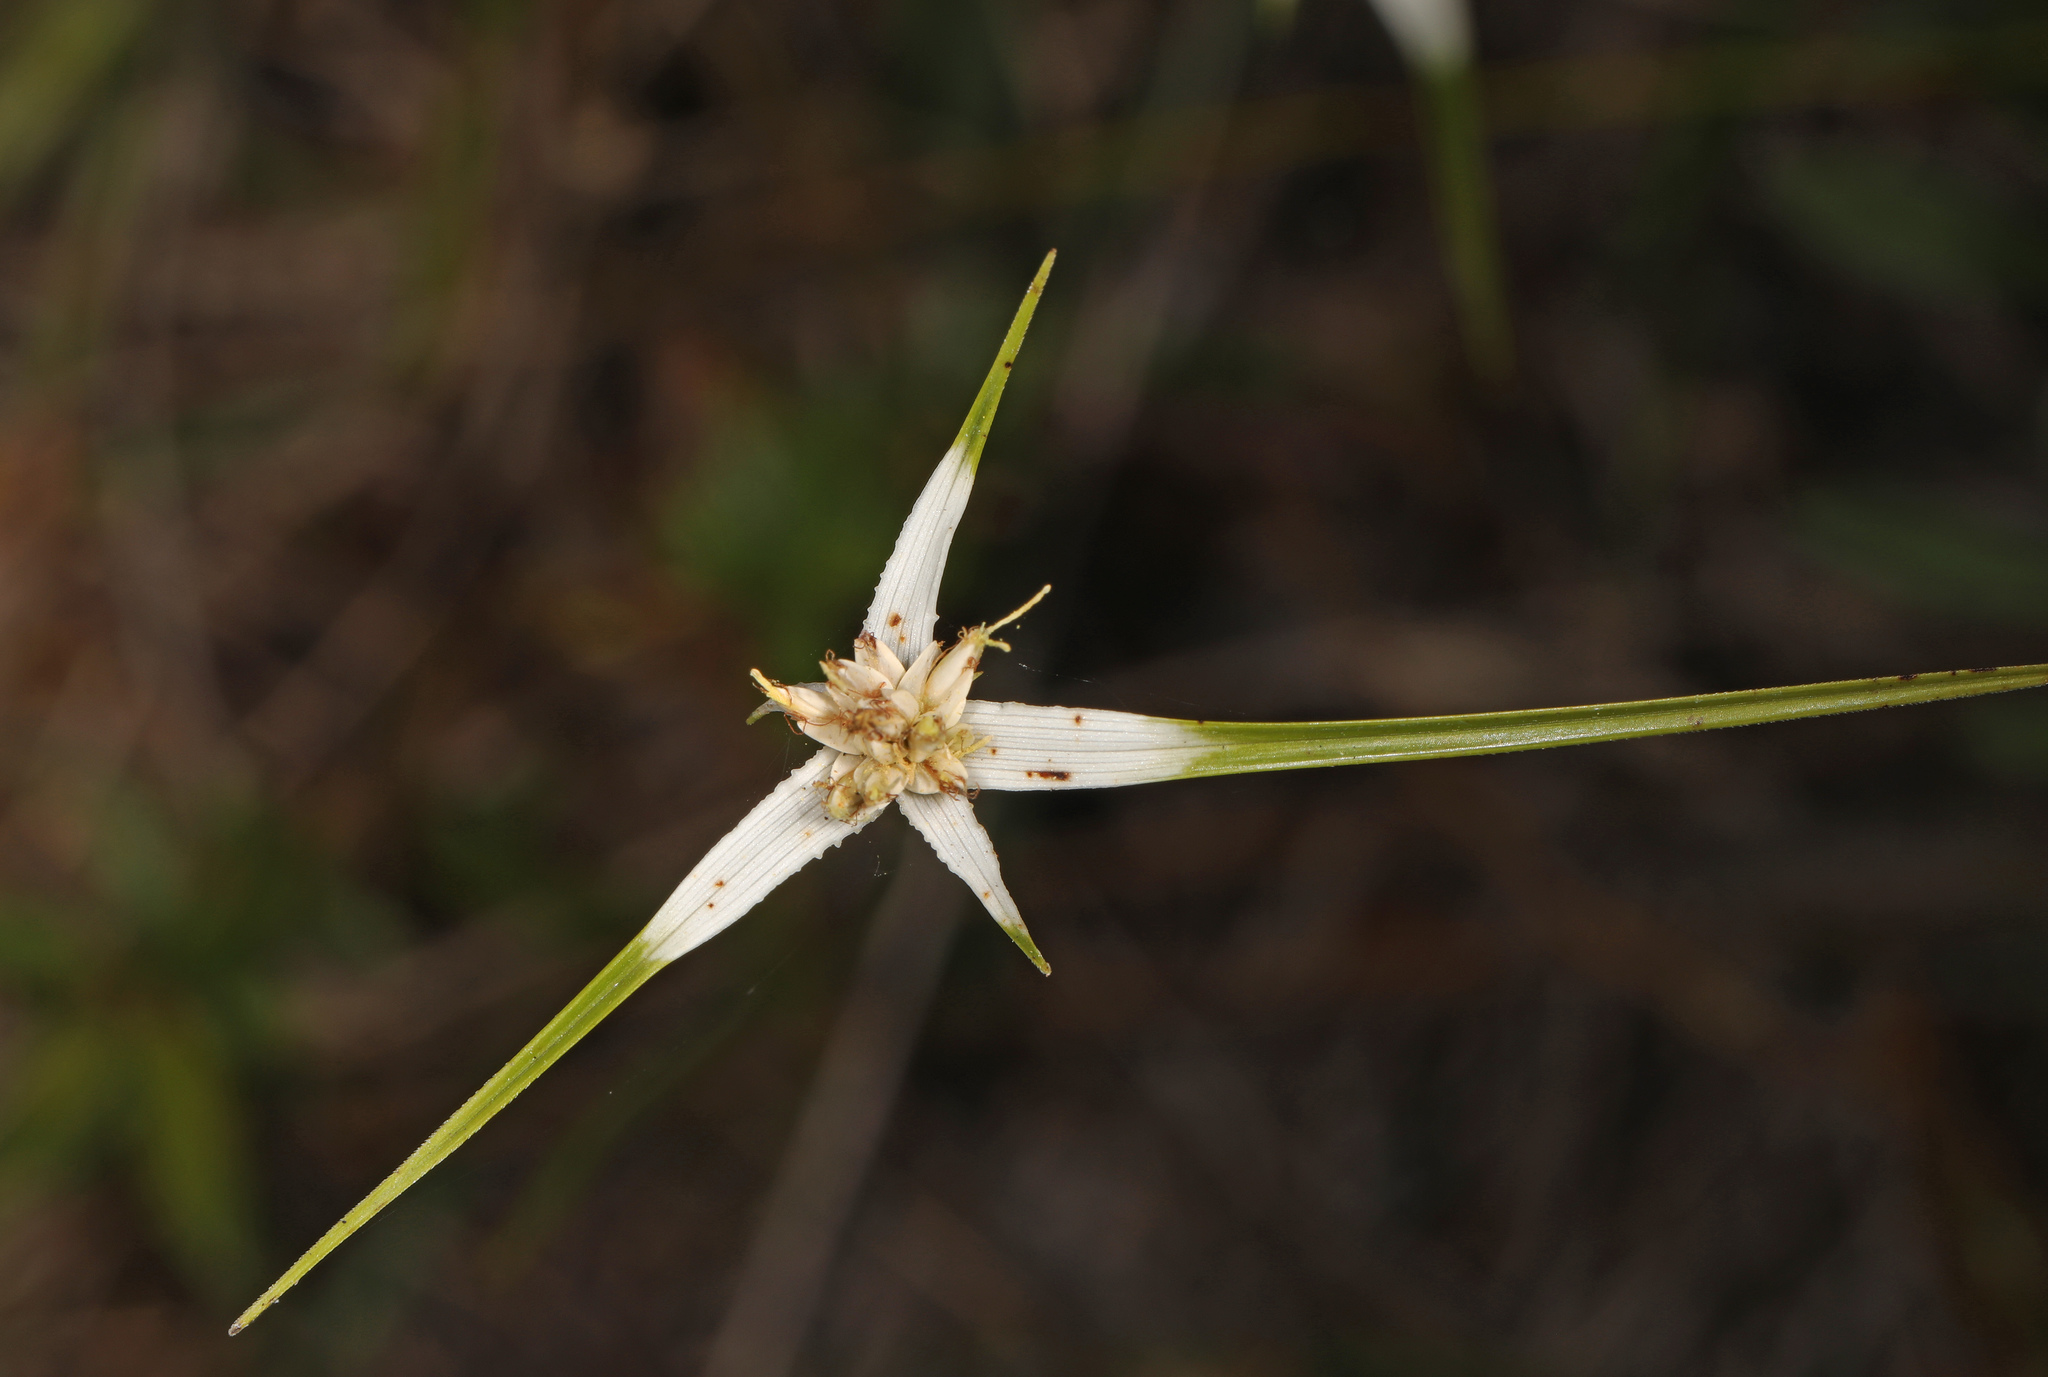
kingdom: Plantae
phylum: Tracheophyta
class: Liliopsida
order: Poales
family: Cyperaceae
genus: Rhynchospora
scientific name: Rhynchospora colorata
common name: Star sedge
